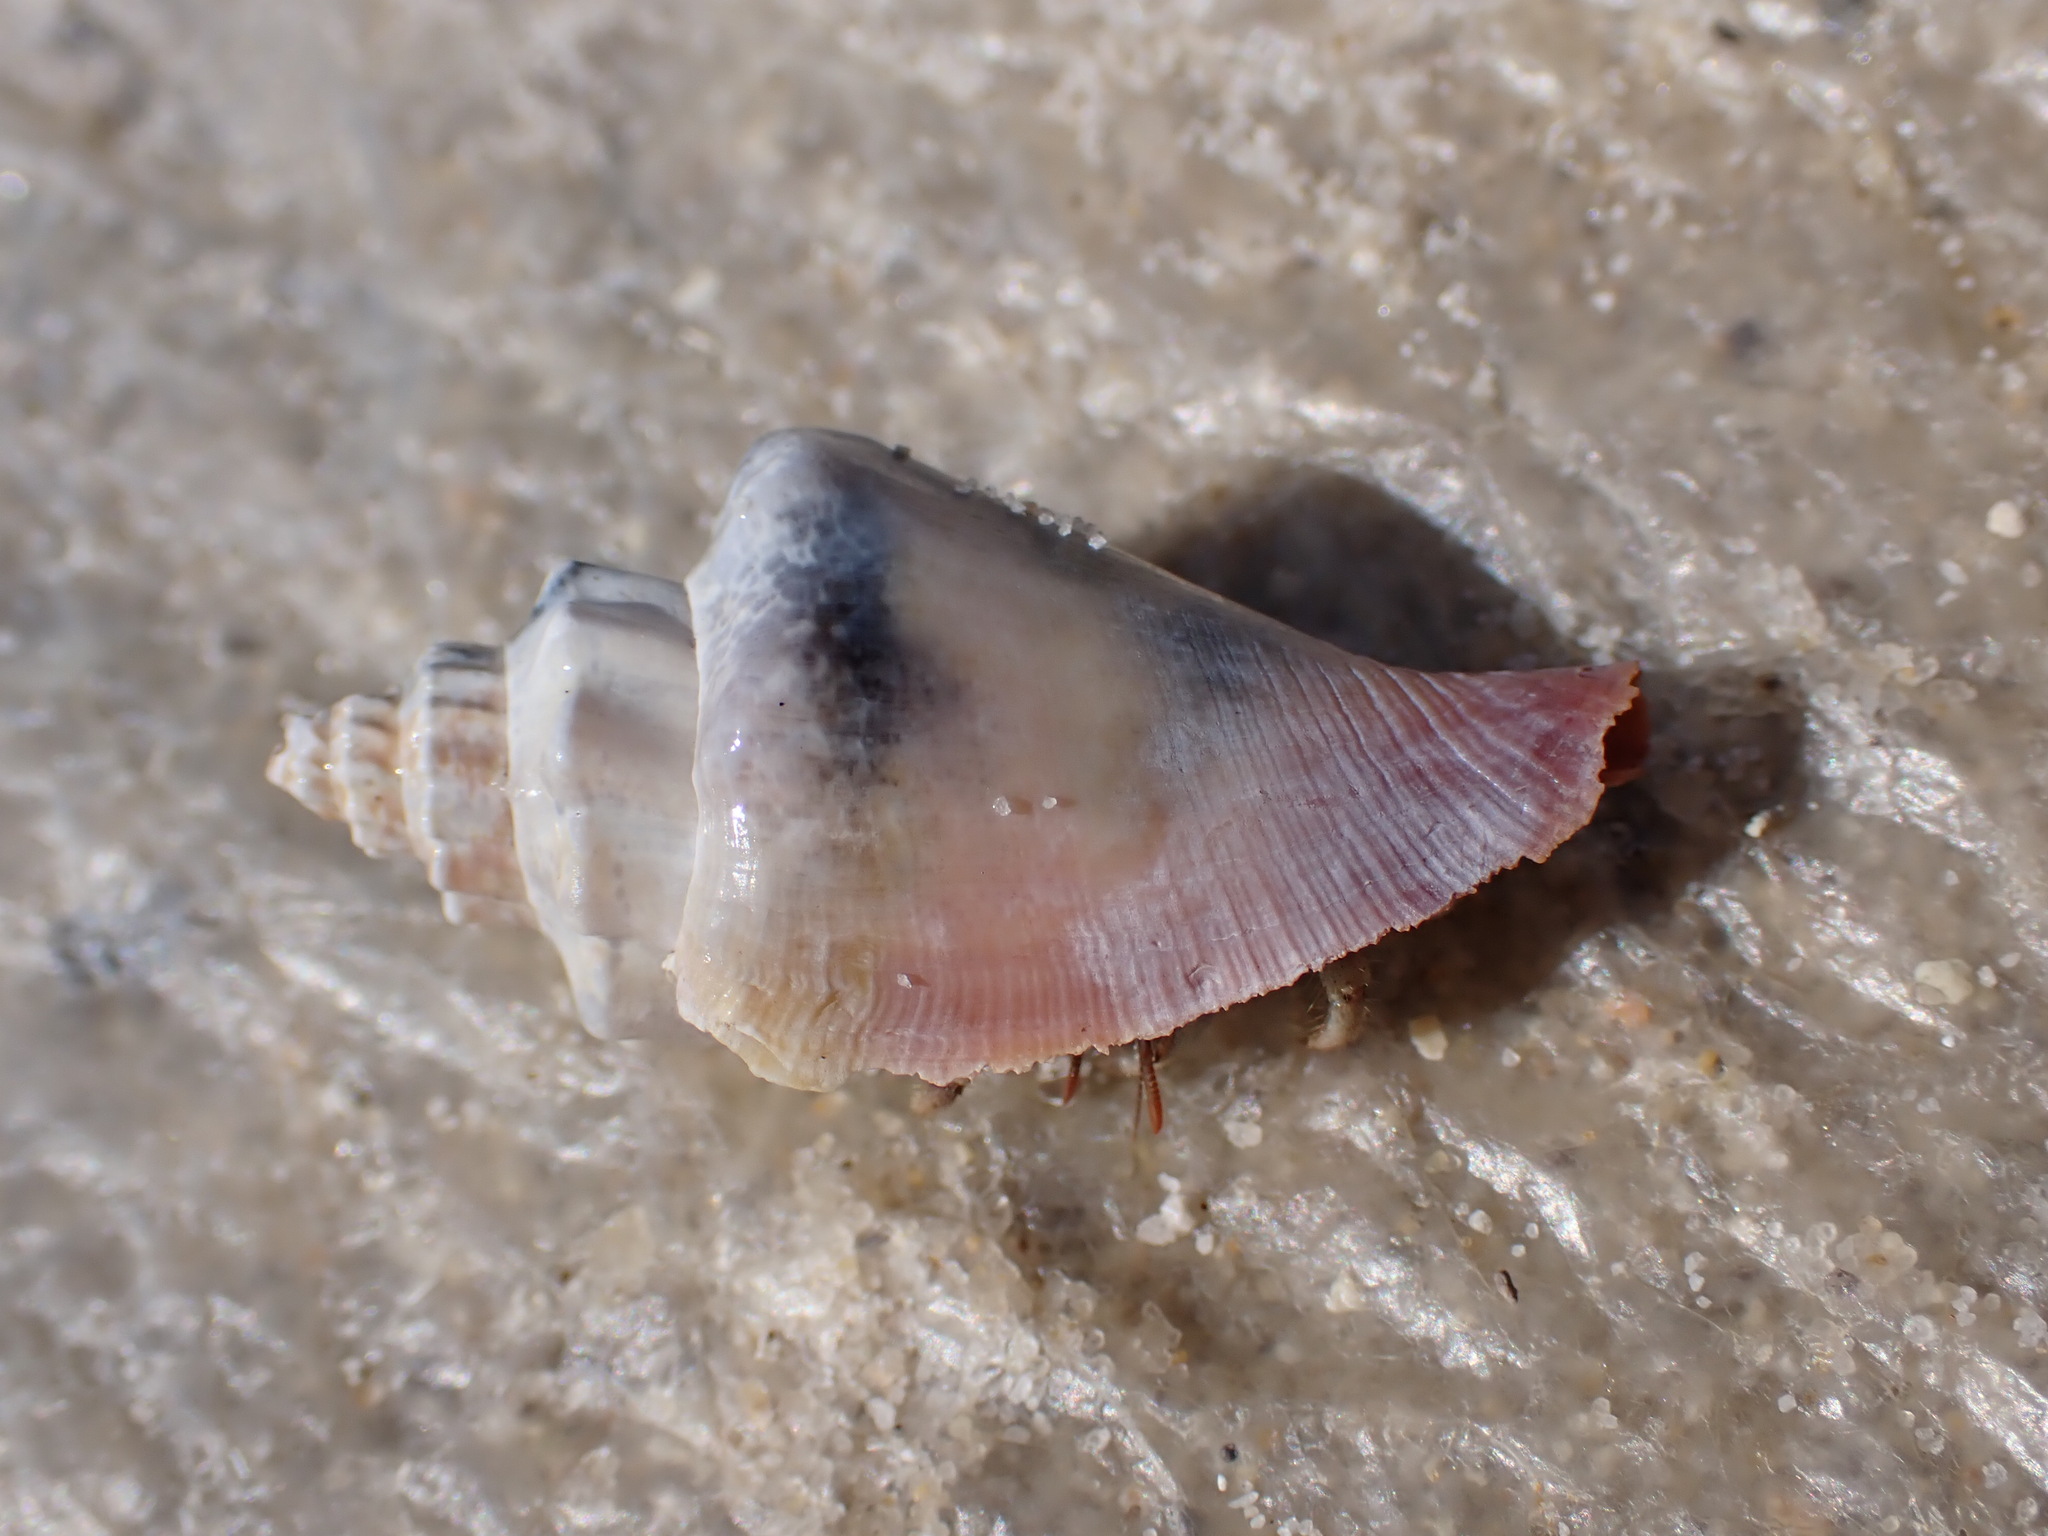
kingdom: Animalia
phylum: Arthropoda
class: Malacostraca
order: Decapoda
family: Coenobitidae
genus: Coenobita
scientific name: Coenobita rugosus
